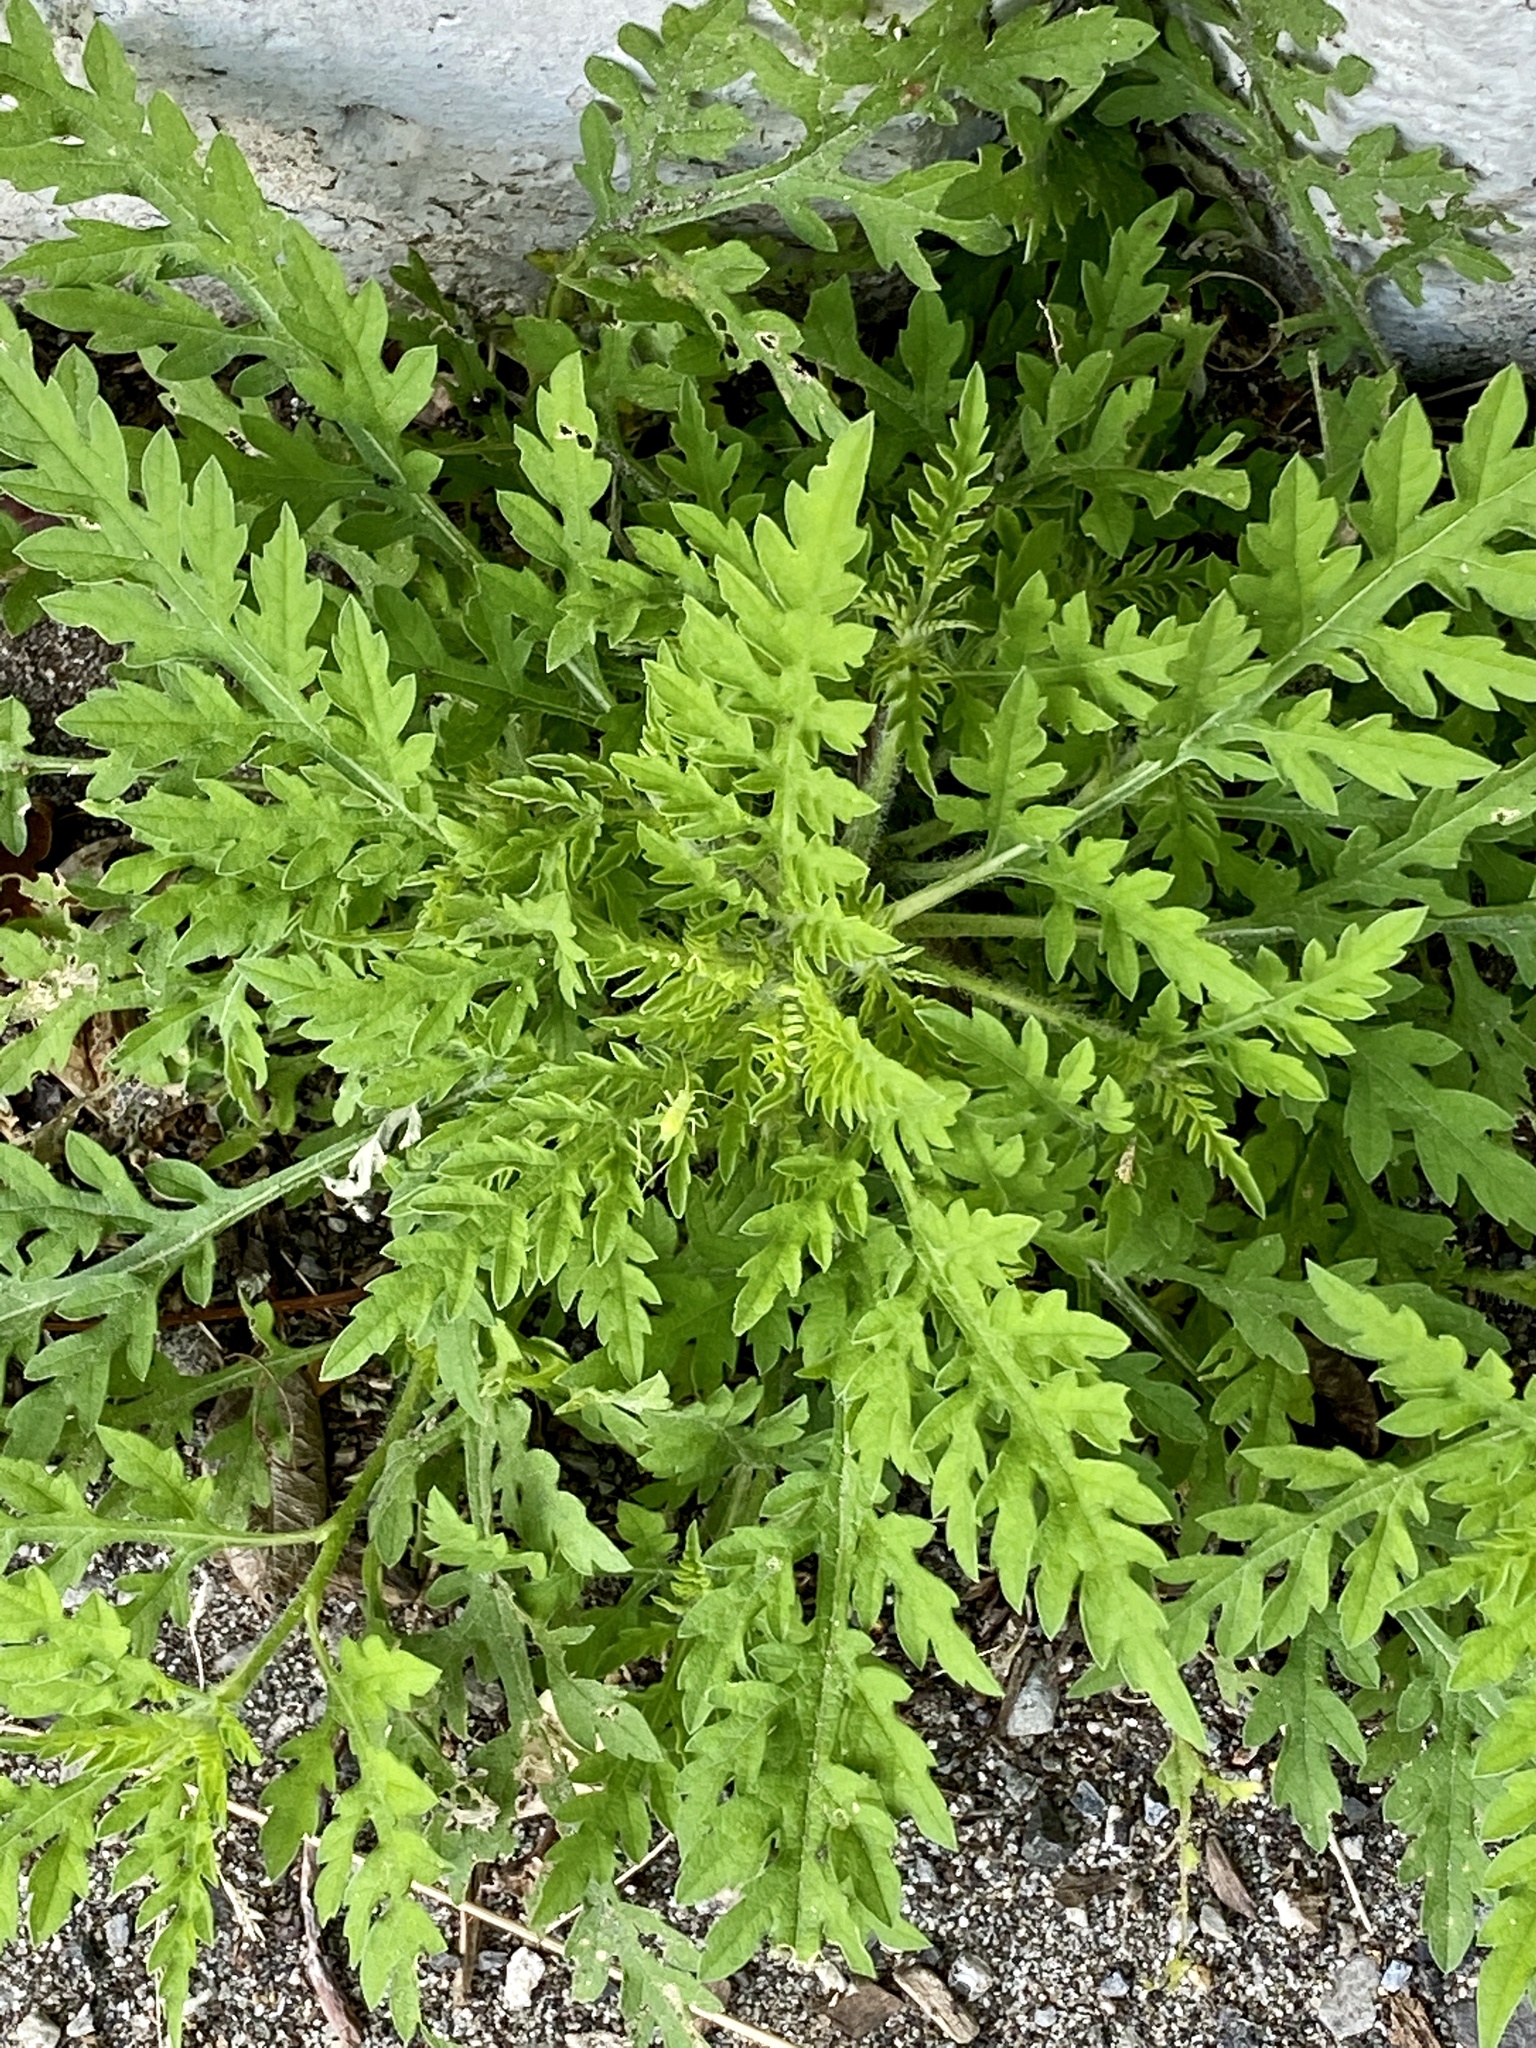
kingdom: Plantae
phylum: Tracheophyta
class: Magnoliopsida
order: Asterales
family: Asteraceae
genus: Ambrosia
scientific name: Ambrosia artemisiifolia
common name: Annual ragweed
